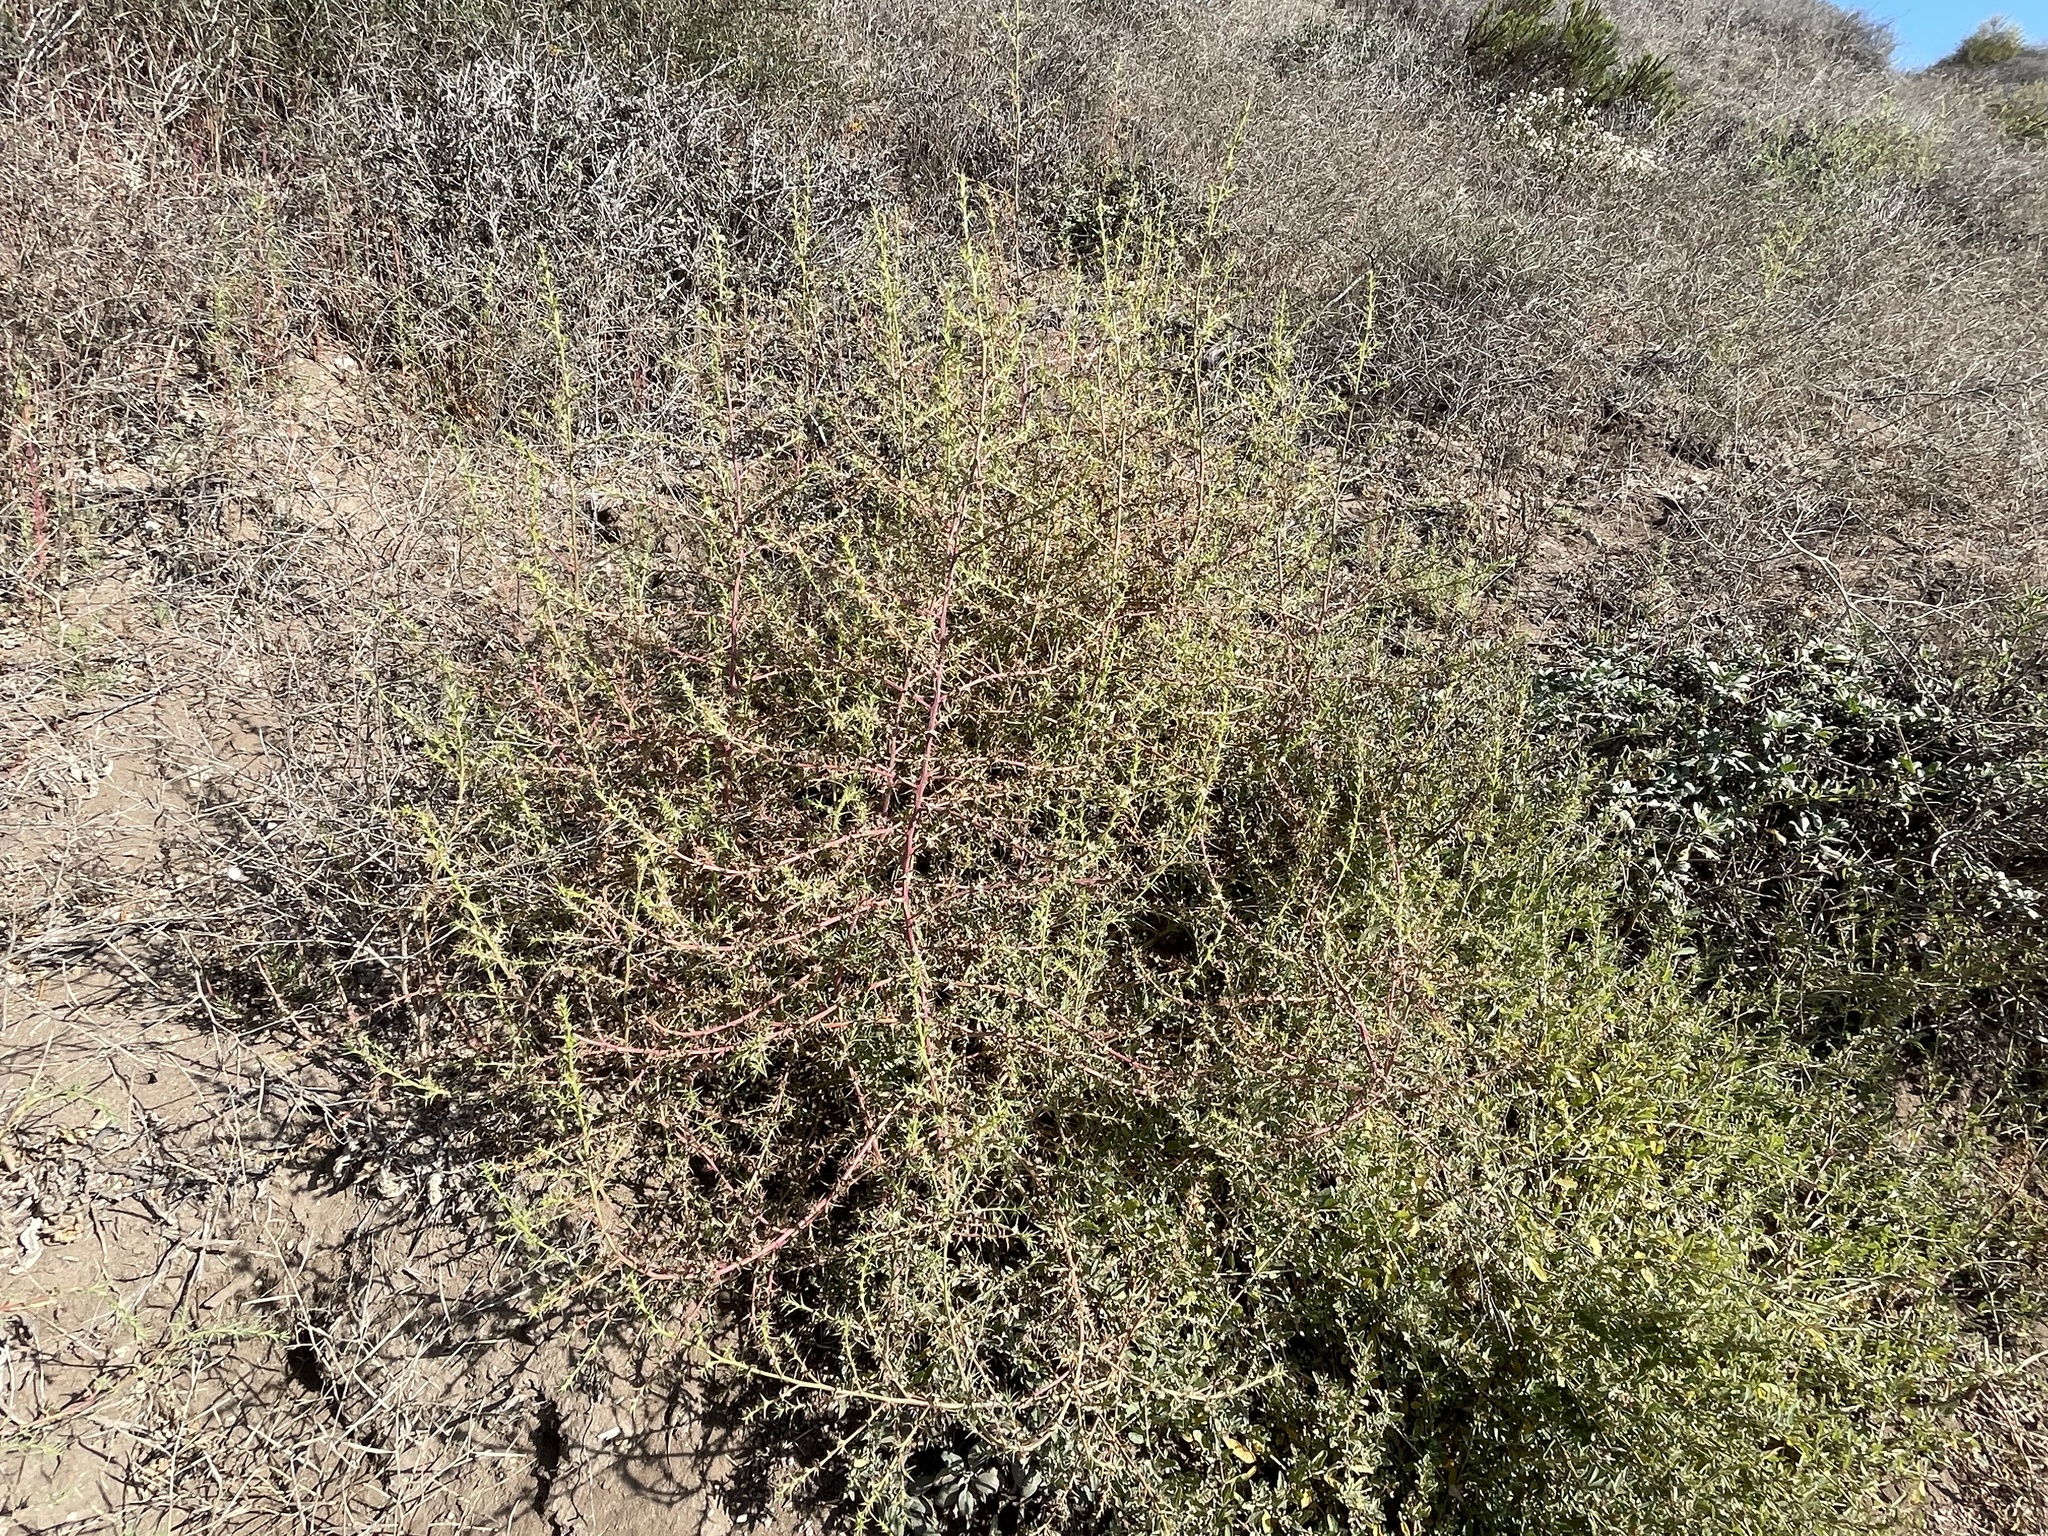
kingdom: Plantae
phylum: Tracheophyta
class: Magnoliopsida
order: Caryophyllales
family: Amaranthaceae
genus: Salsola
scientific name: Salsola tragus
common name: Prickly russian thistle
